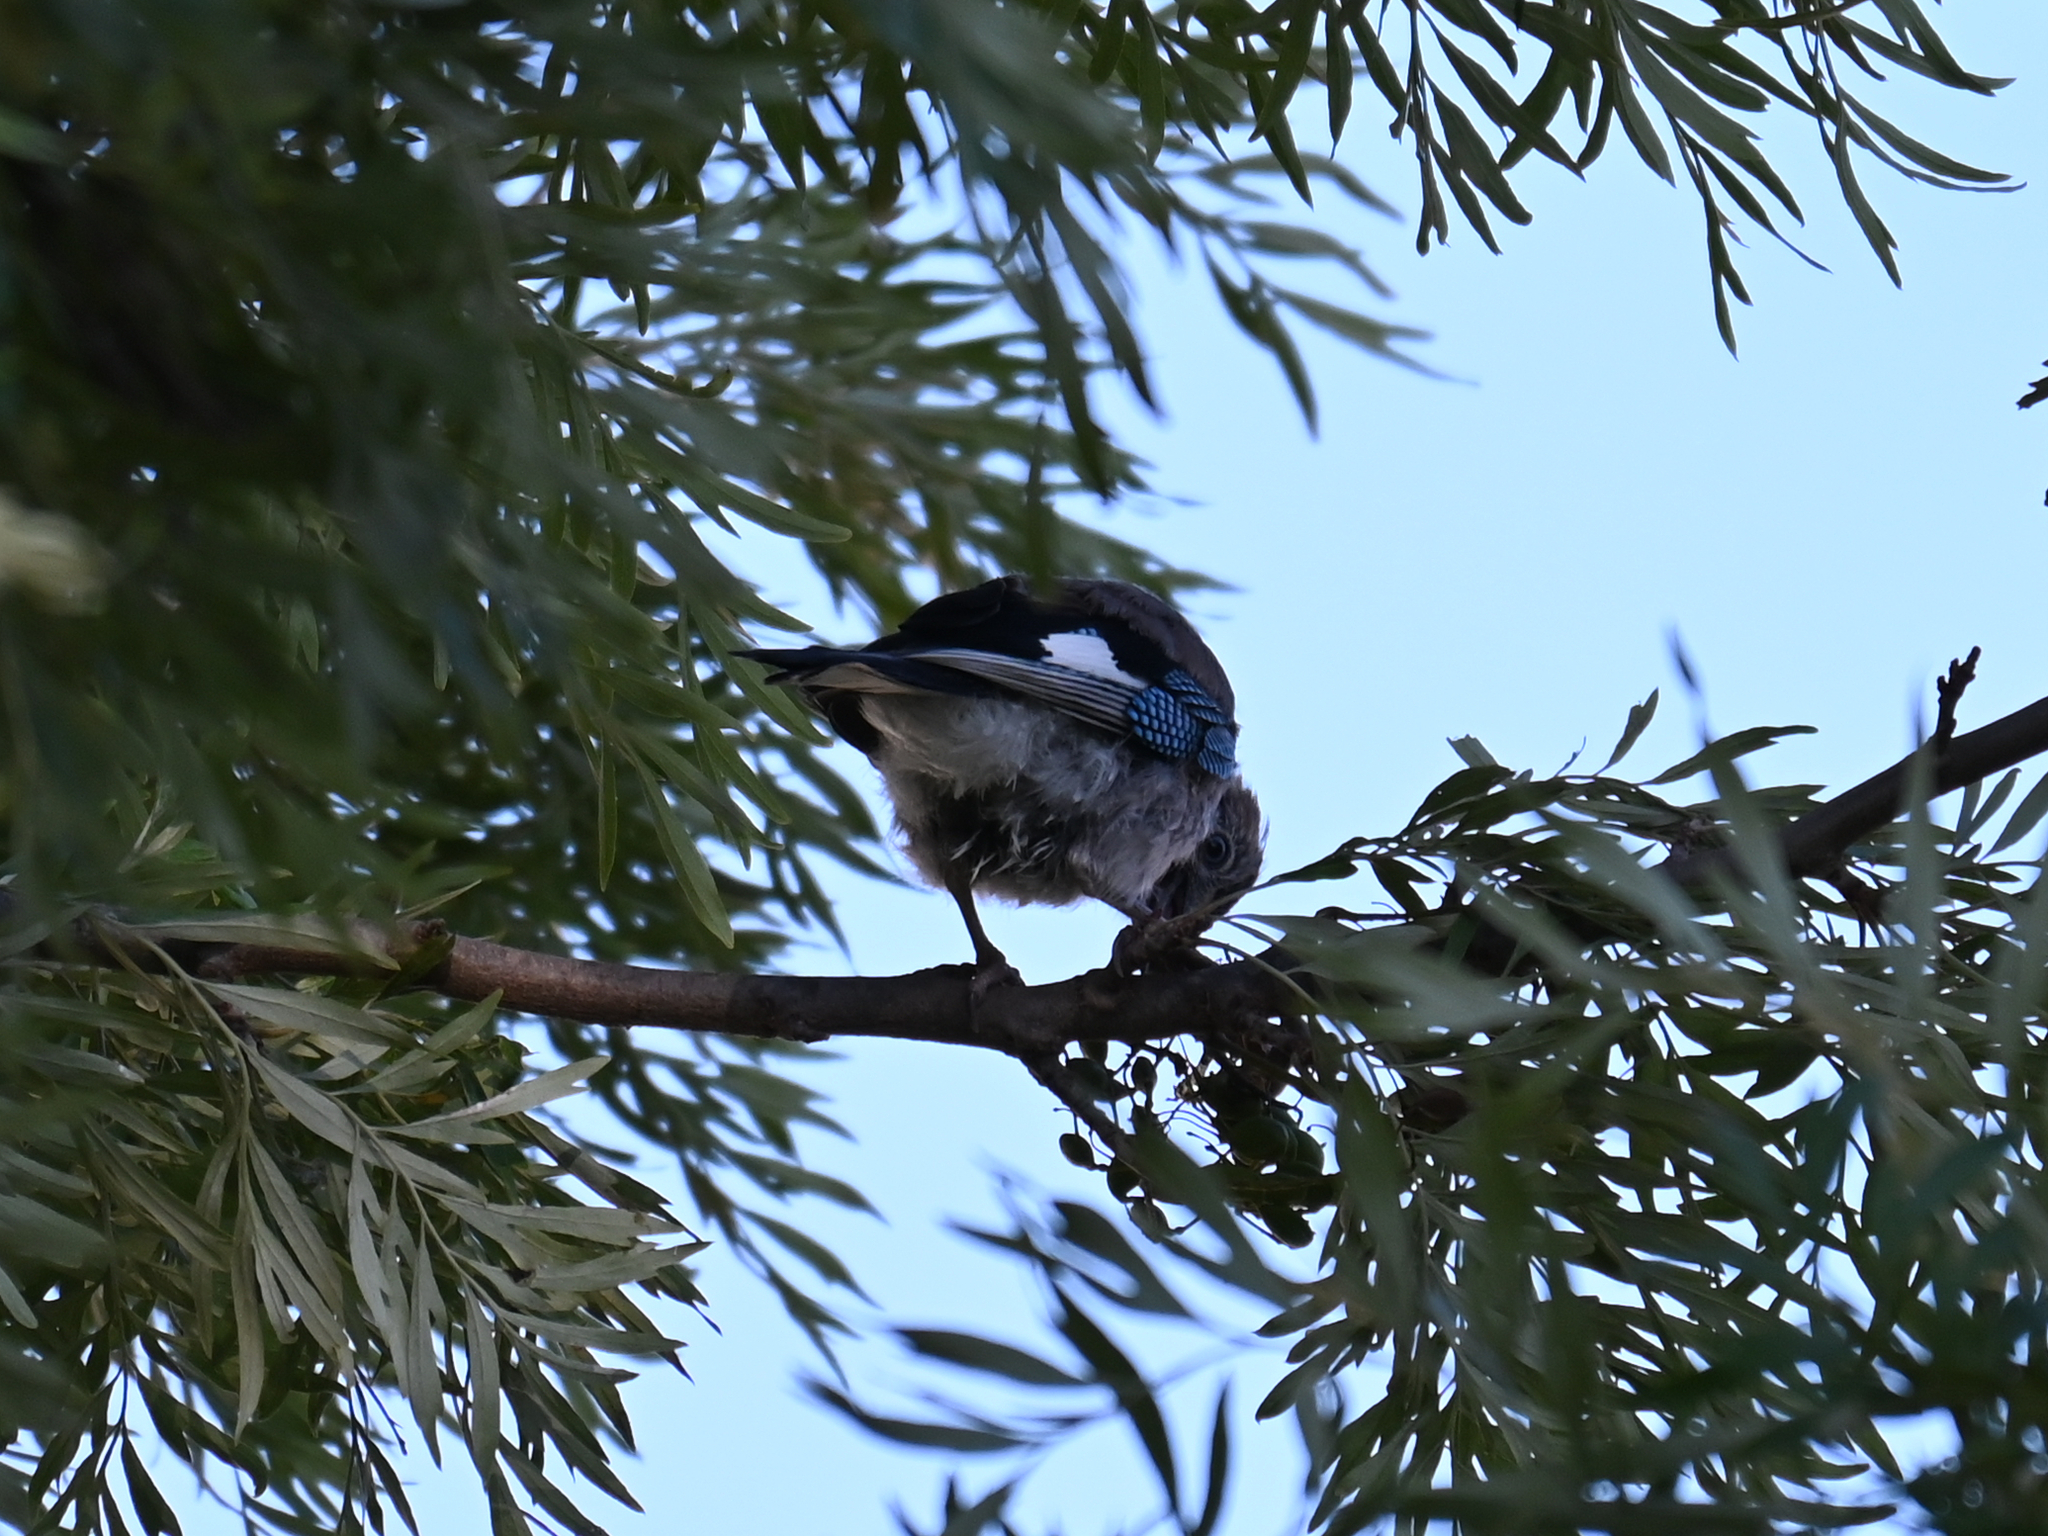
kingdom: Animalia
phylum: Chordata
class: Aves
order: Passeriformes
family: Corvidae
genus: Garrulus
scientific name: Garrulus glandarius
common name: Eurasian jay
